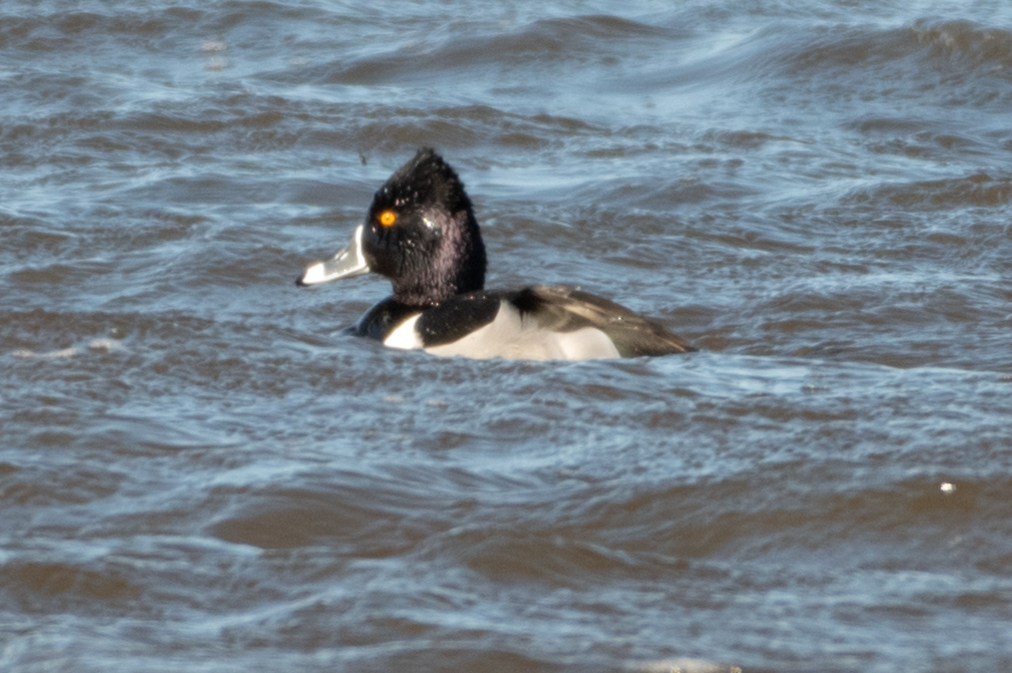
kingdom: Animalia
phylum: Chordata
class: Aves
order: Anseriformes
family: Anatidae
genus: Aythya
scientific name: Aythya collaris
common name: Ring-necked duck
